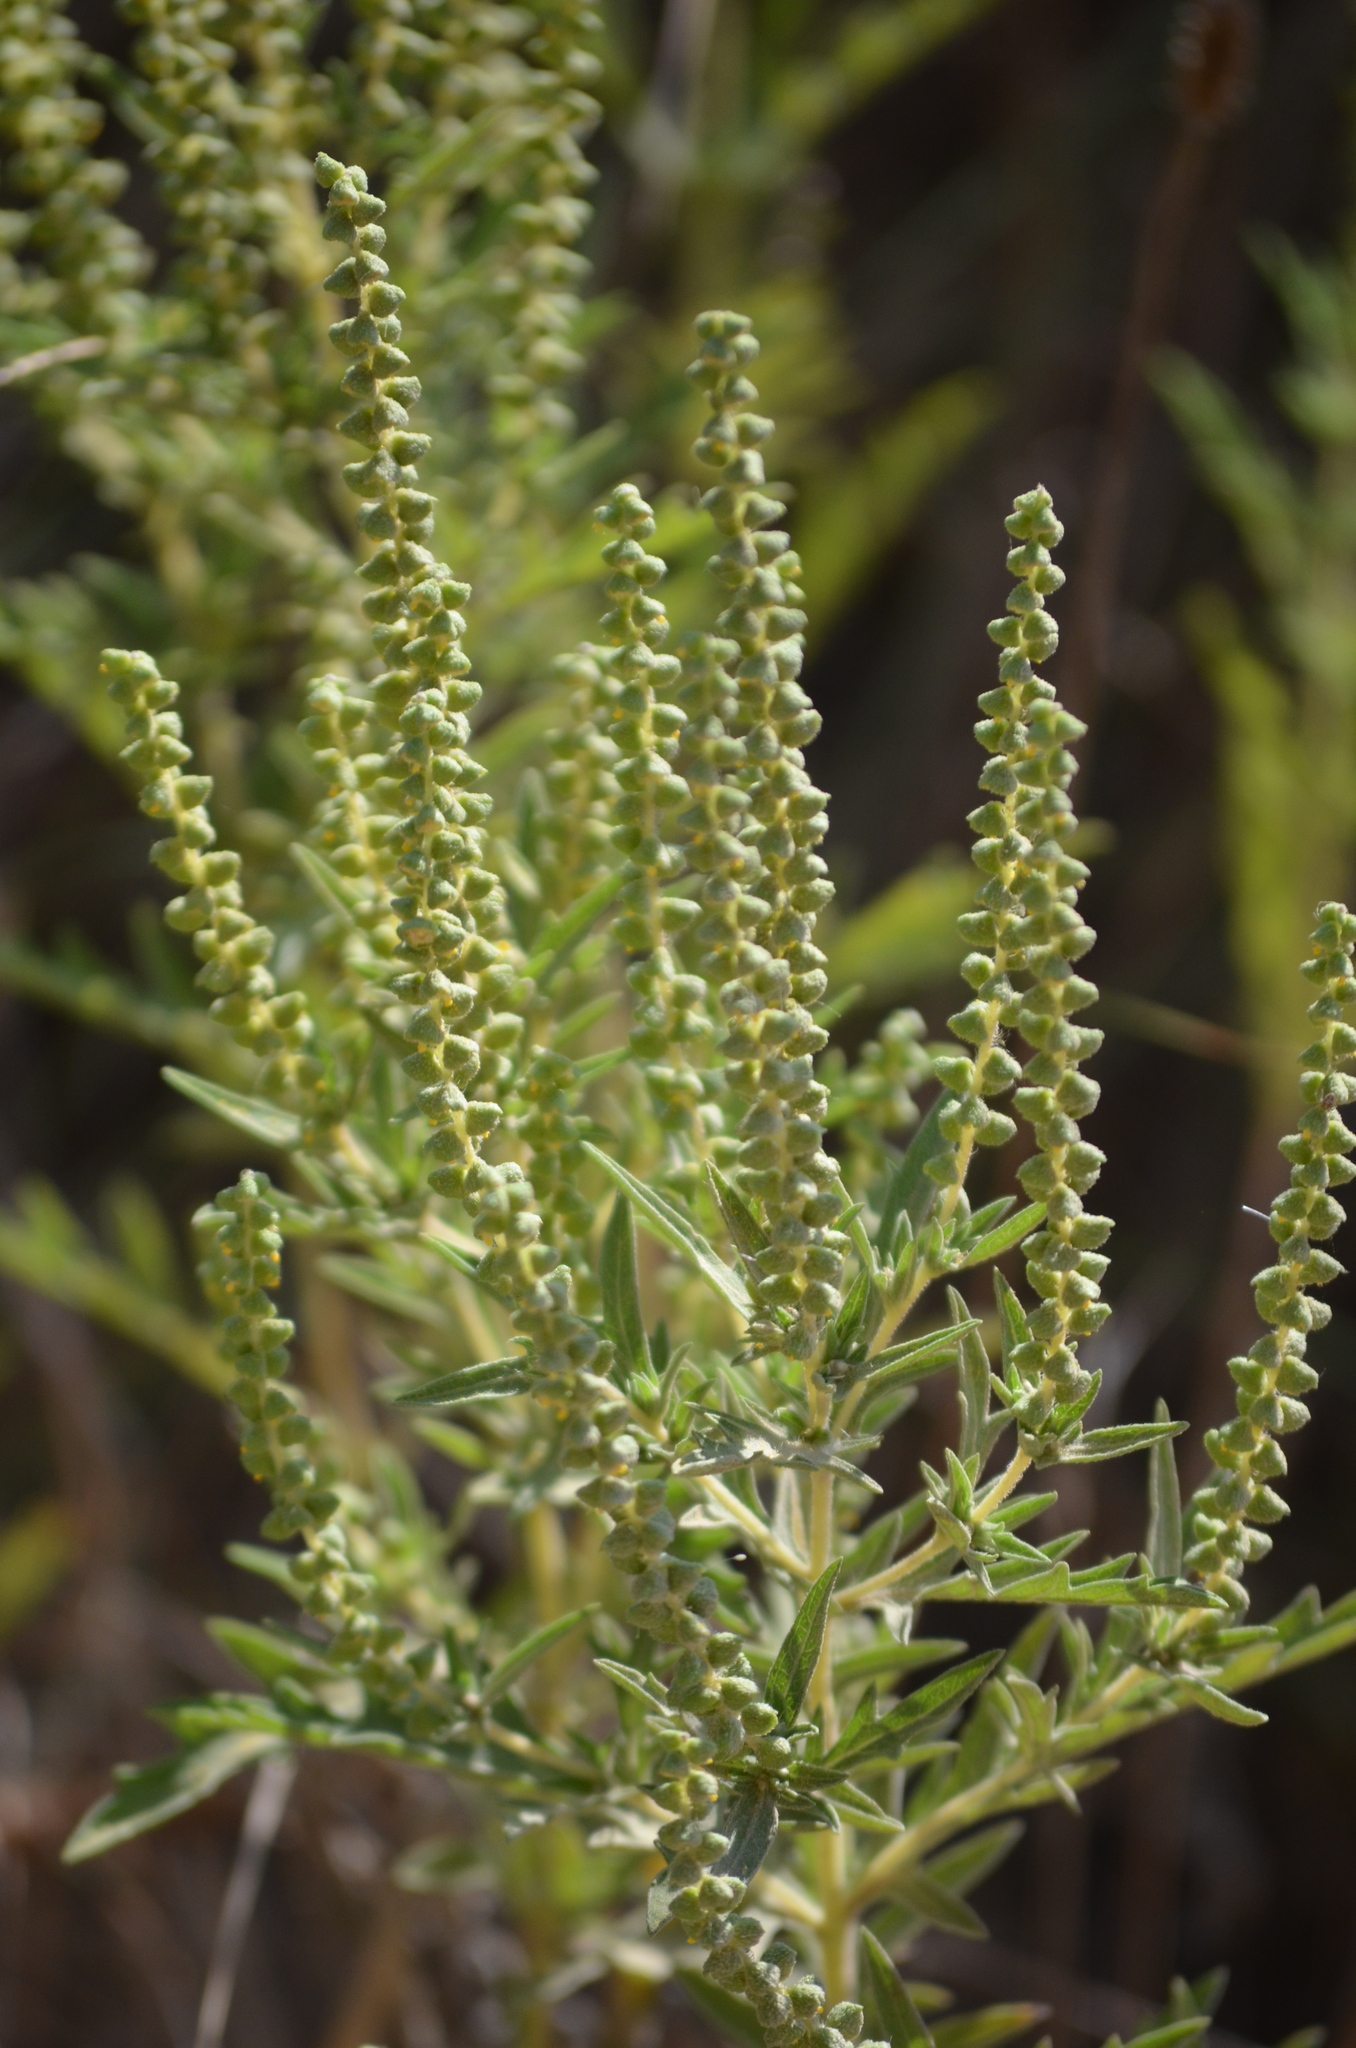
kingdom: Plantae
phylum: Tracheophyta
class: Magnoliopsida
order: Asterales
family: Asteraceae
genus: Ambrosia
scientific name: Ambrosia psilostachya
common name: Perennial ragweed
